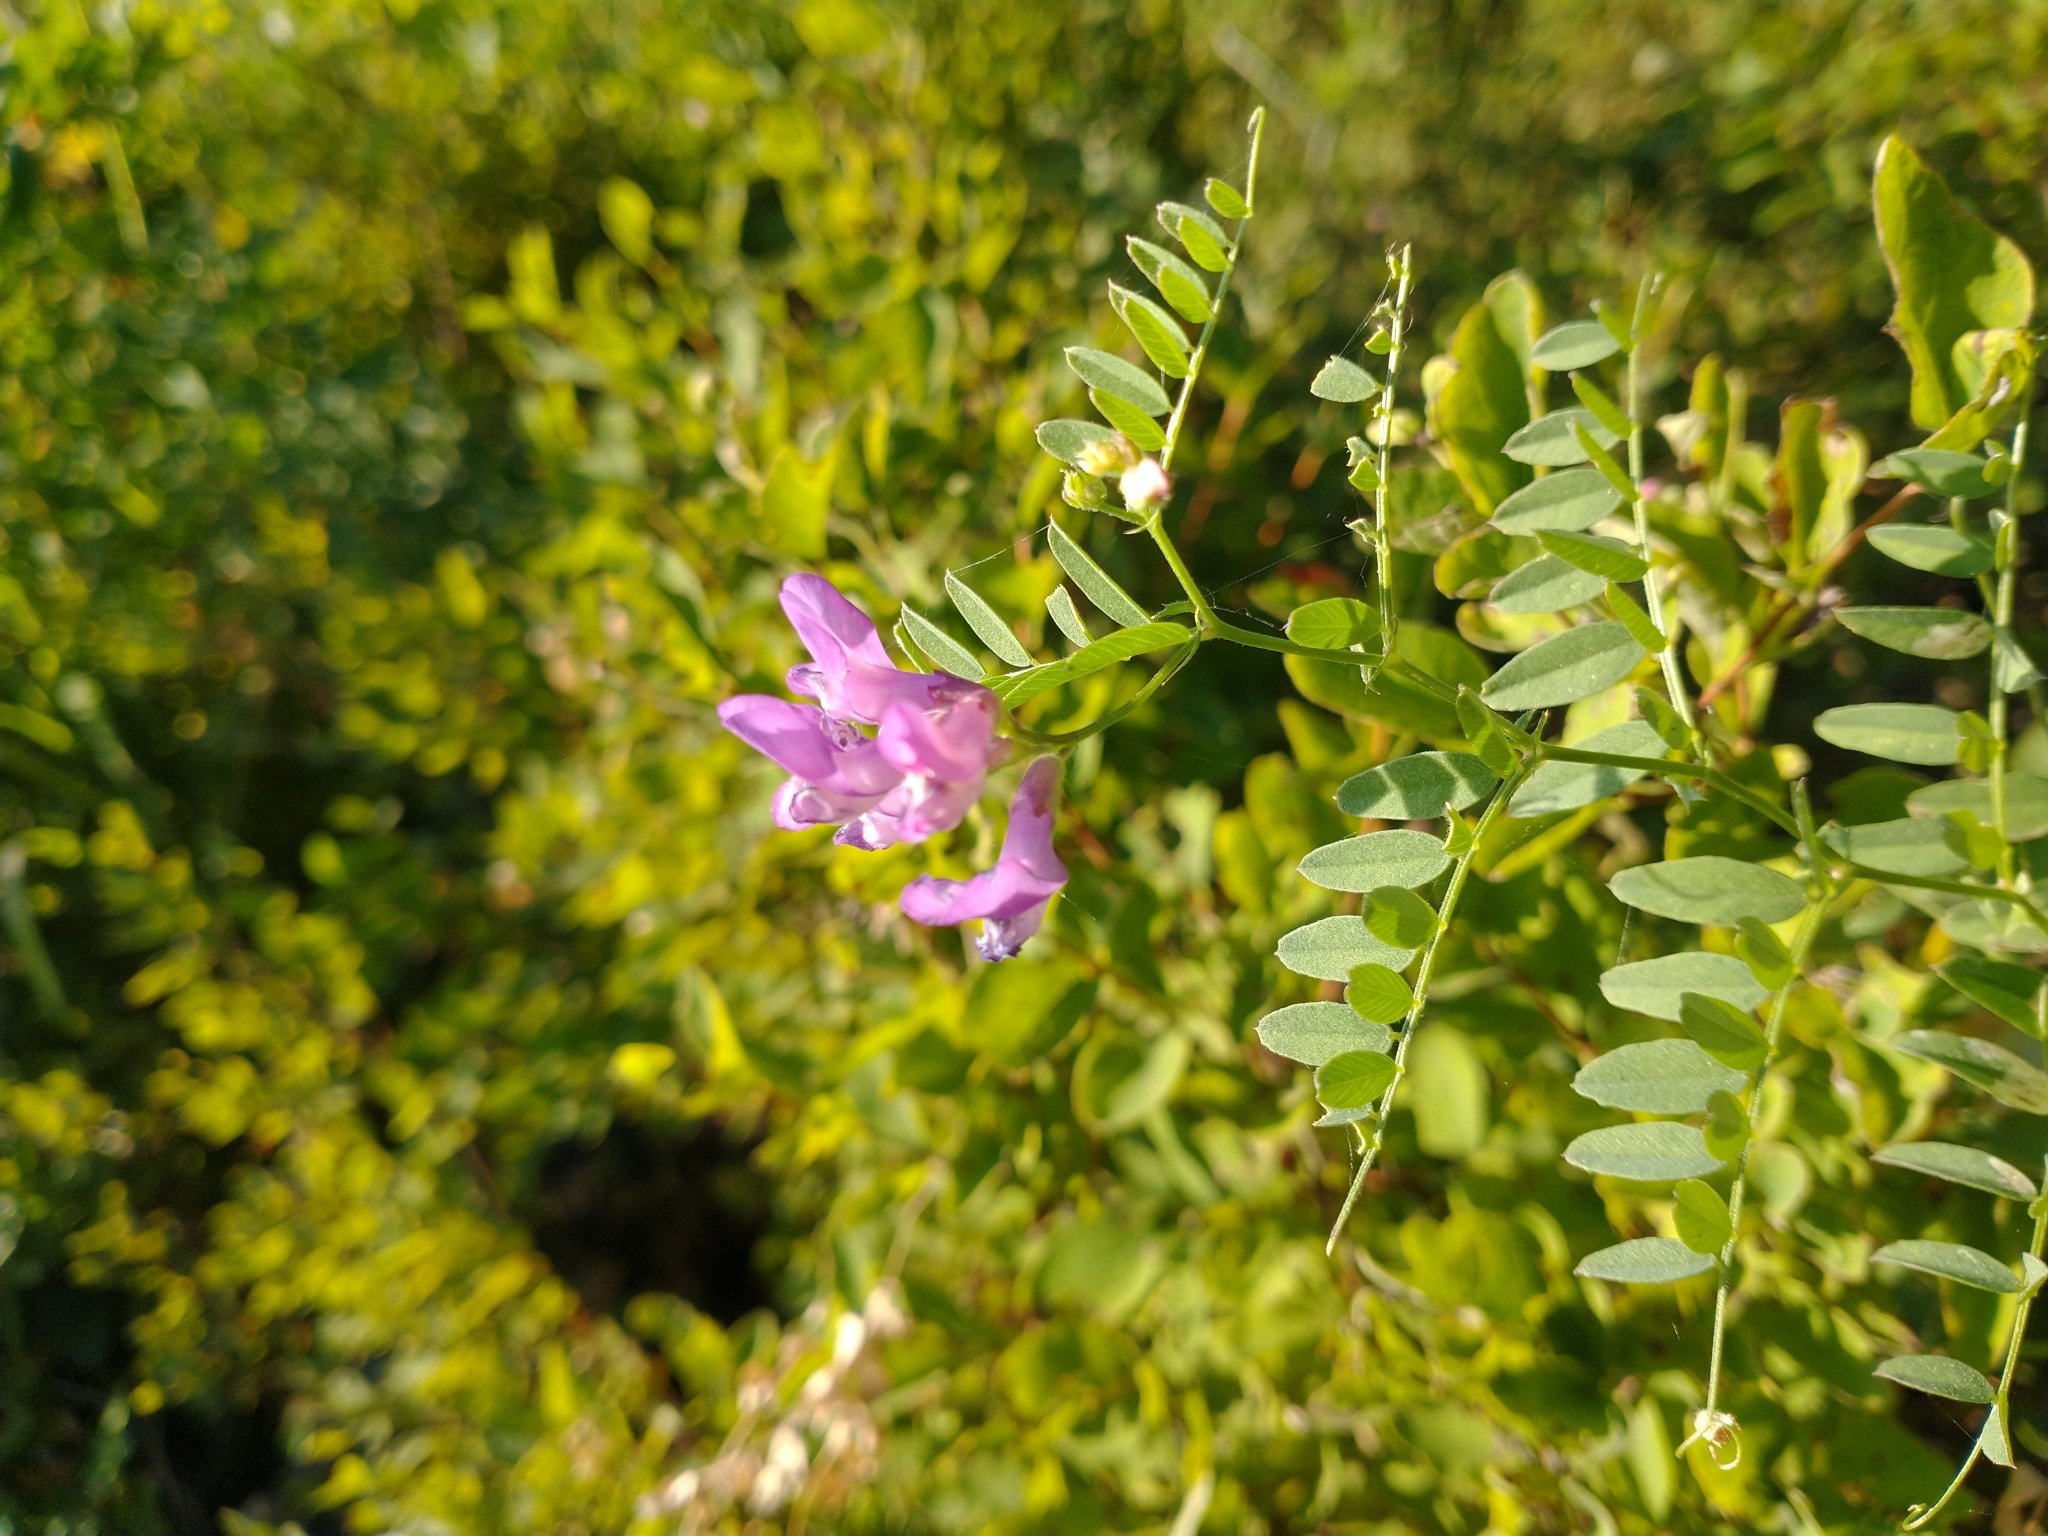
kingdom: Plantae
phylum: Tracheophyta
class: Magnoliopsida
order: Fabales
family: Fabaceae
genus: Vicia
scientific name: Vicia americana
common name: American vetch
